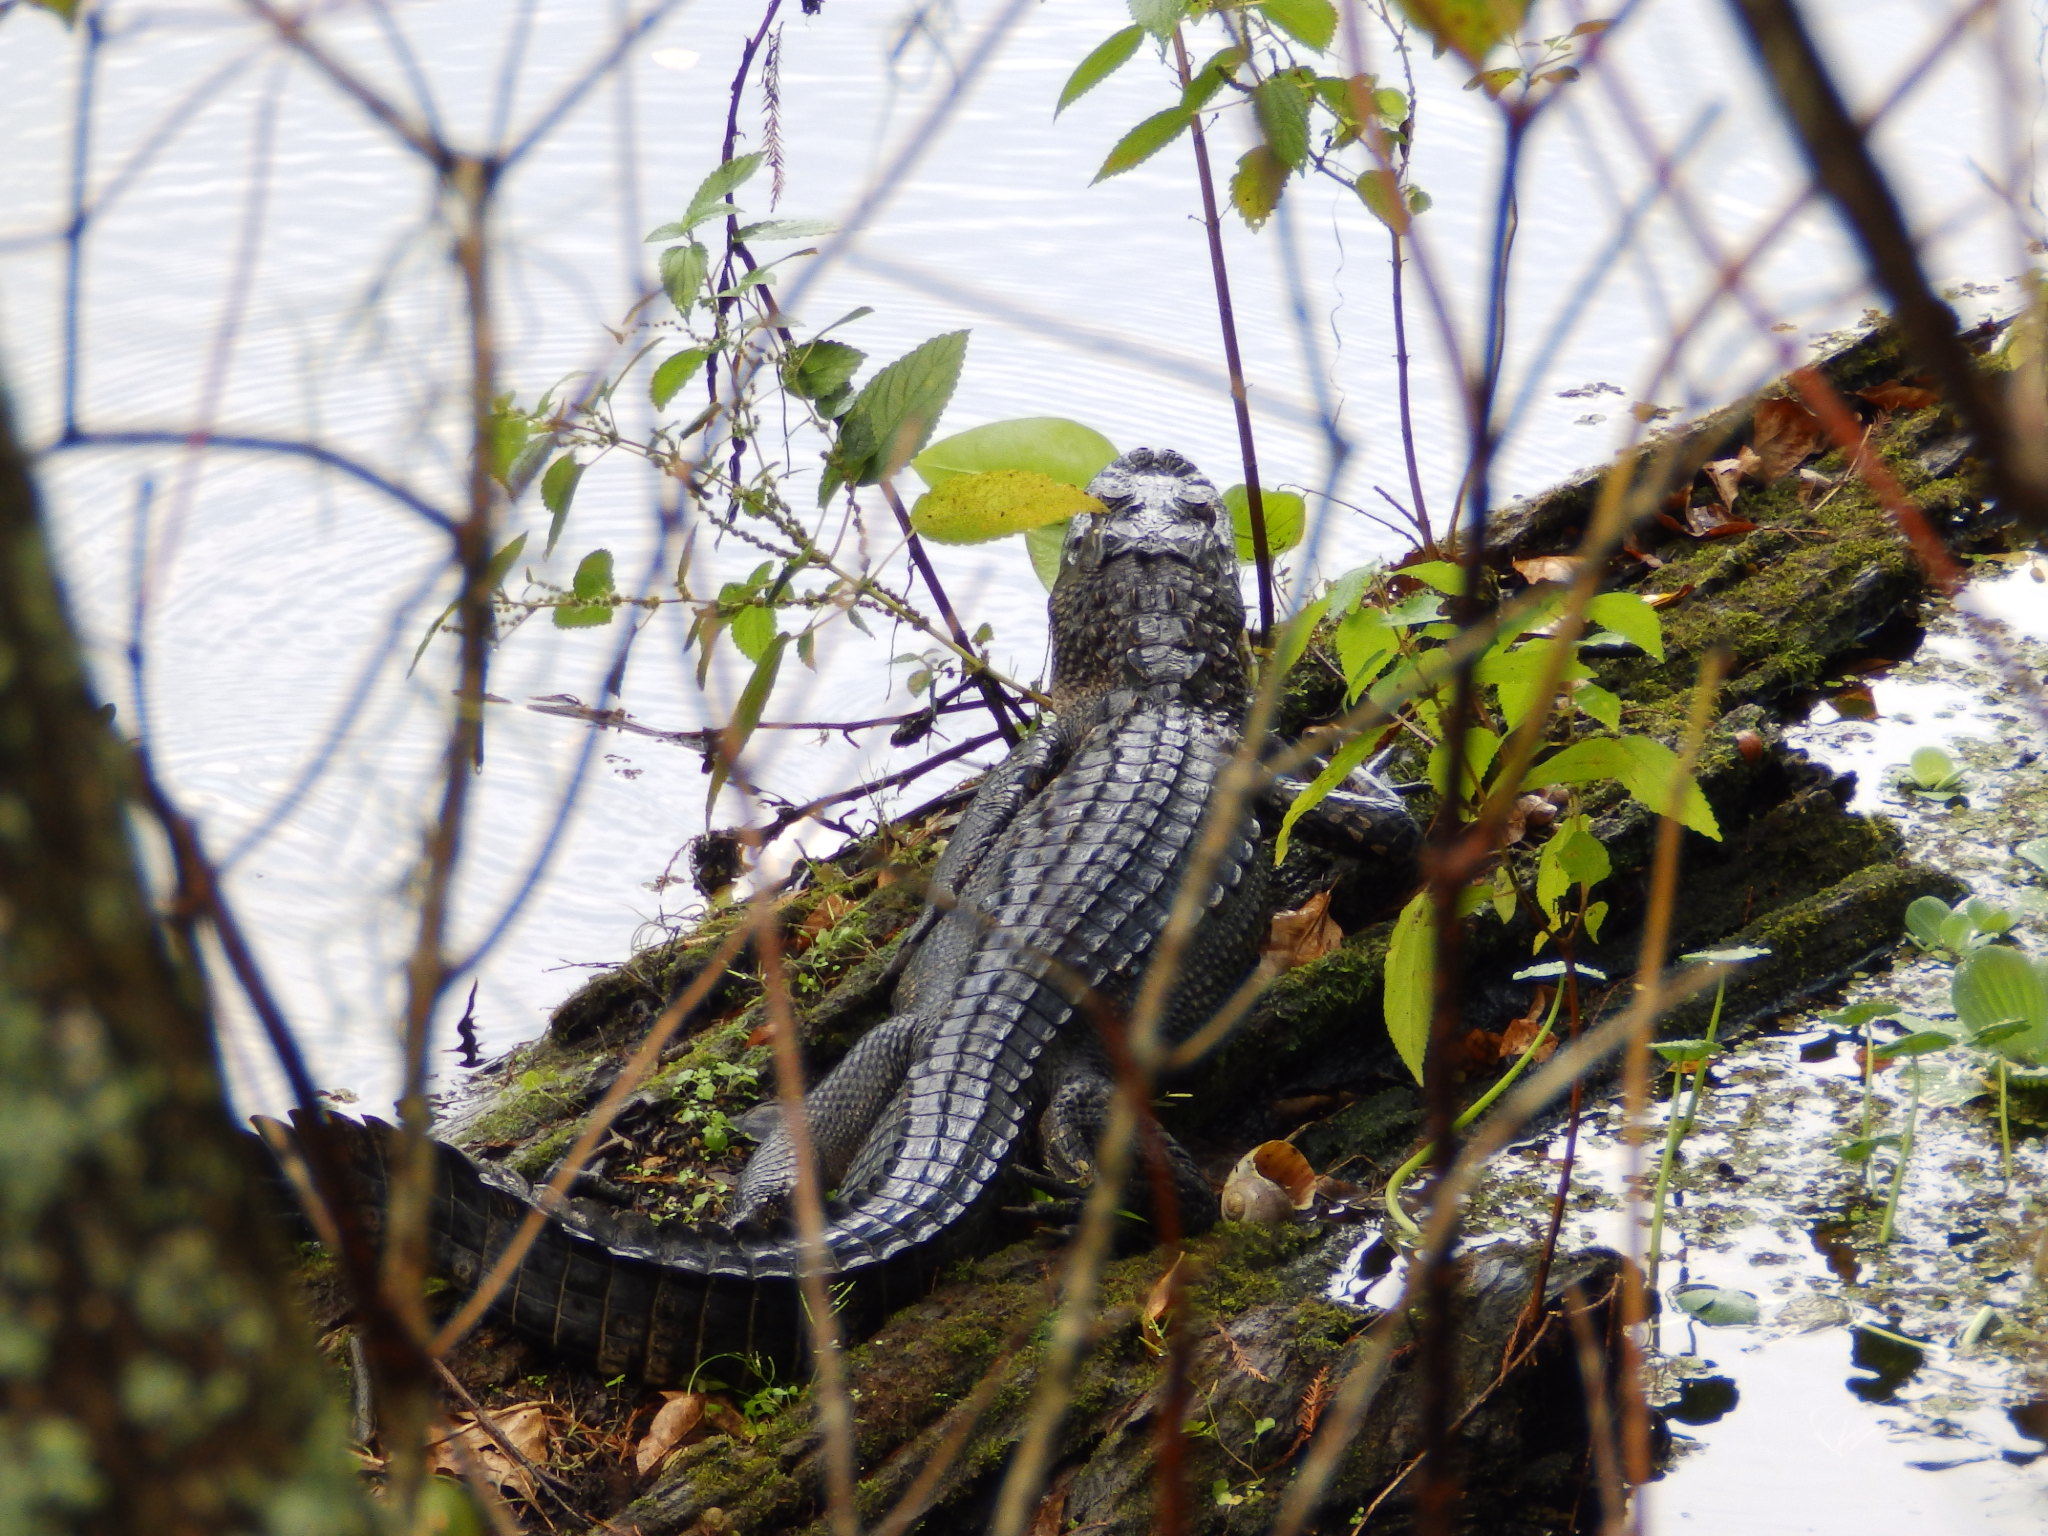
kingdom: Animalia
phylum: Chordata
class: Crocodylia
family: Alligatoridae
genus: Alligator
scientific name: Alligator mississippiensis
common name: American alligator
